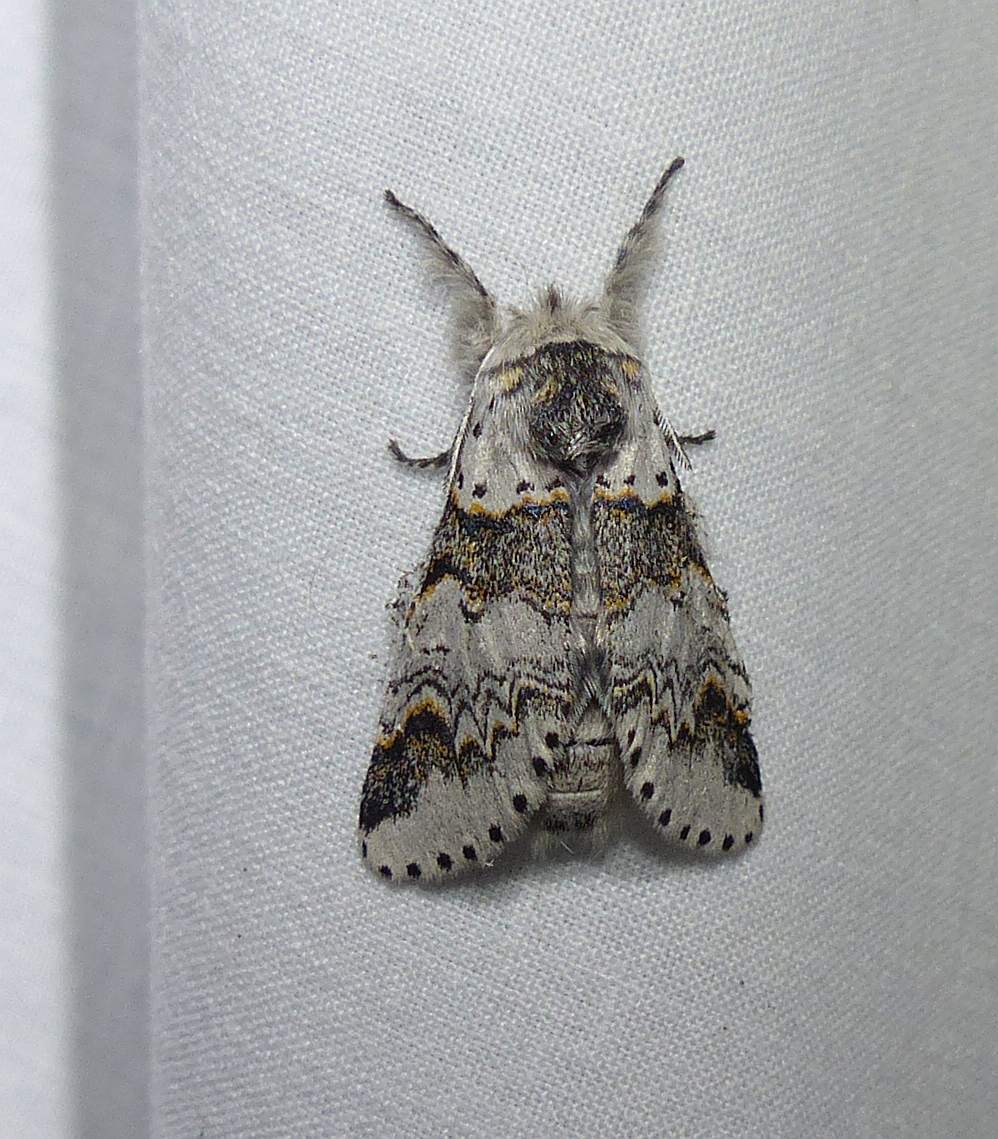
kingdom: Animalia
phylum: Arthropoda
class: Insecta
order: Lepidoptera
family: Notodontidae
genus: Furcula
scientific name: Furcula occidentalis
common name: Western furcula moth
